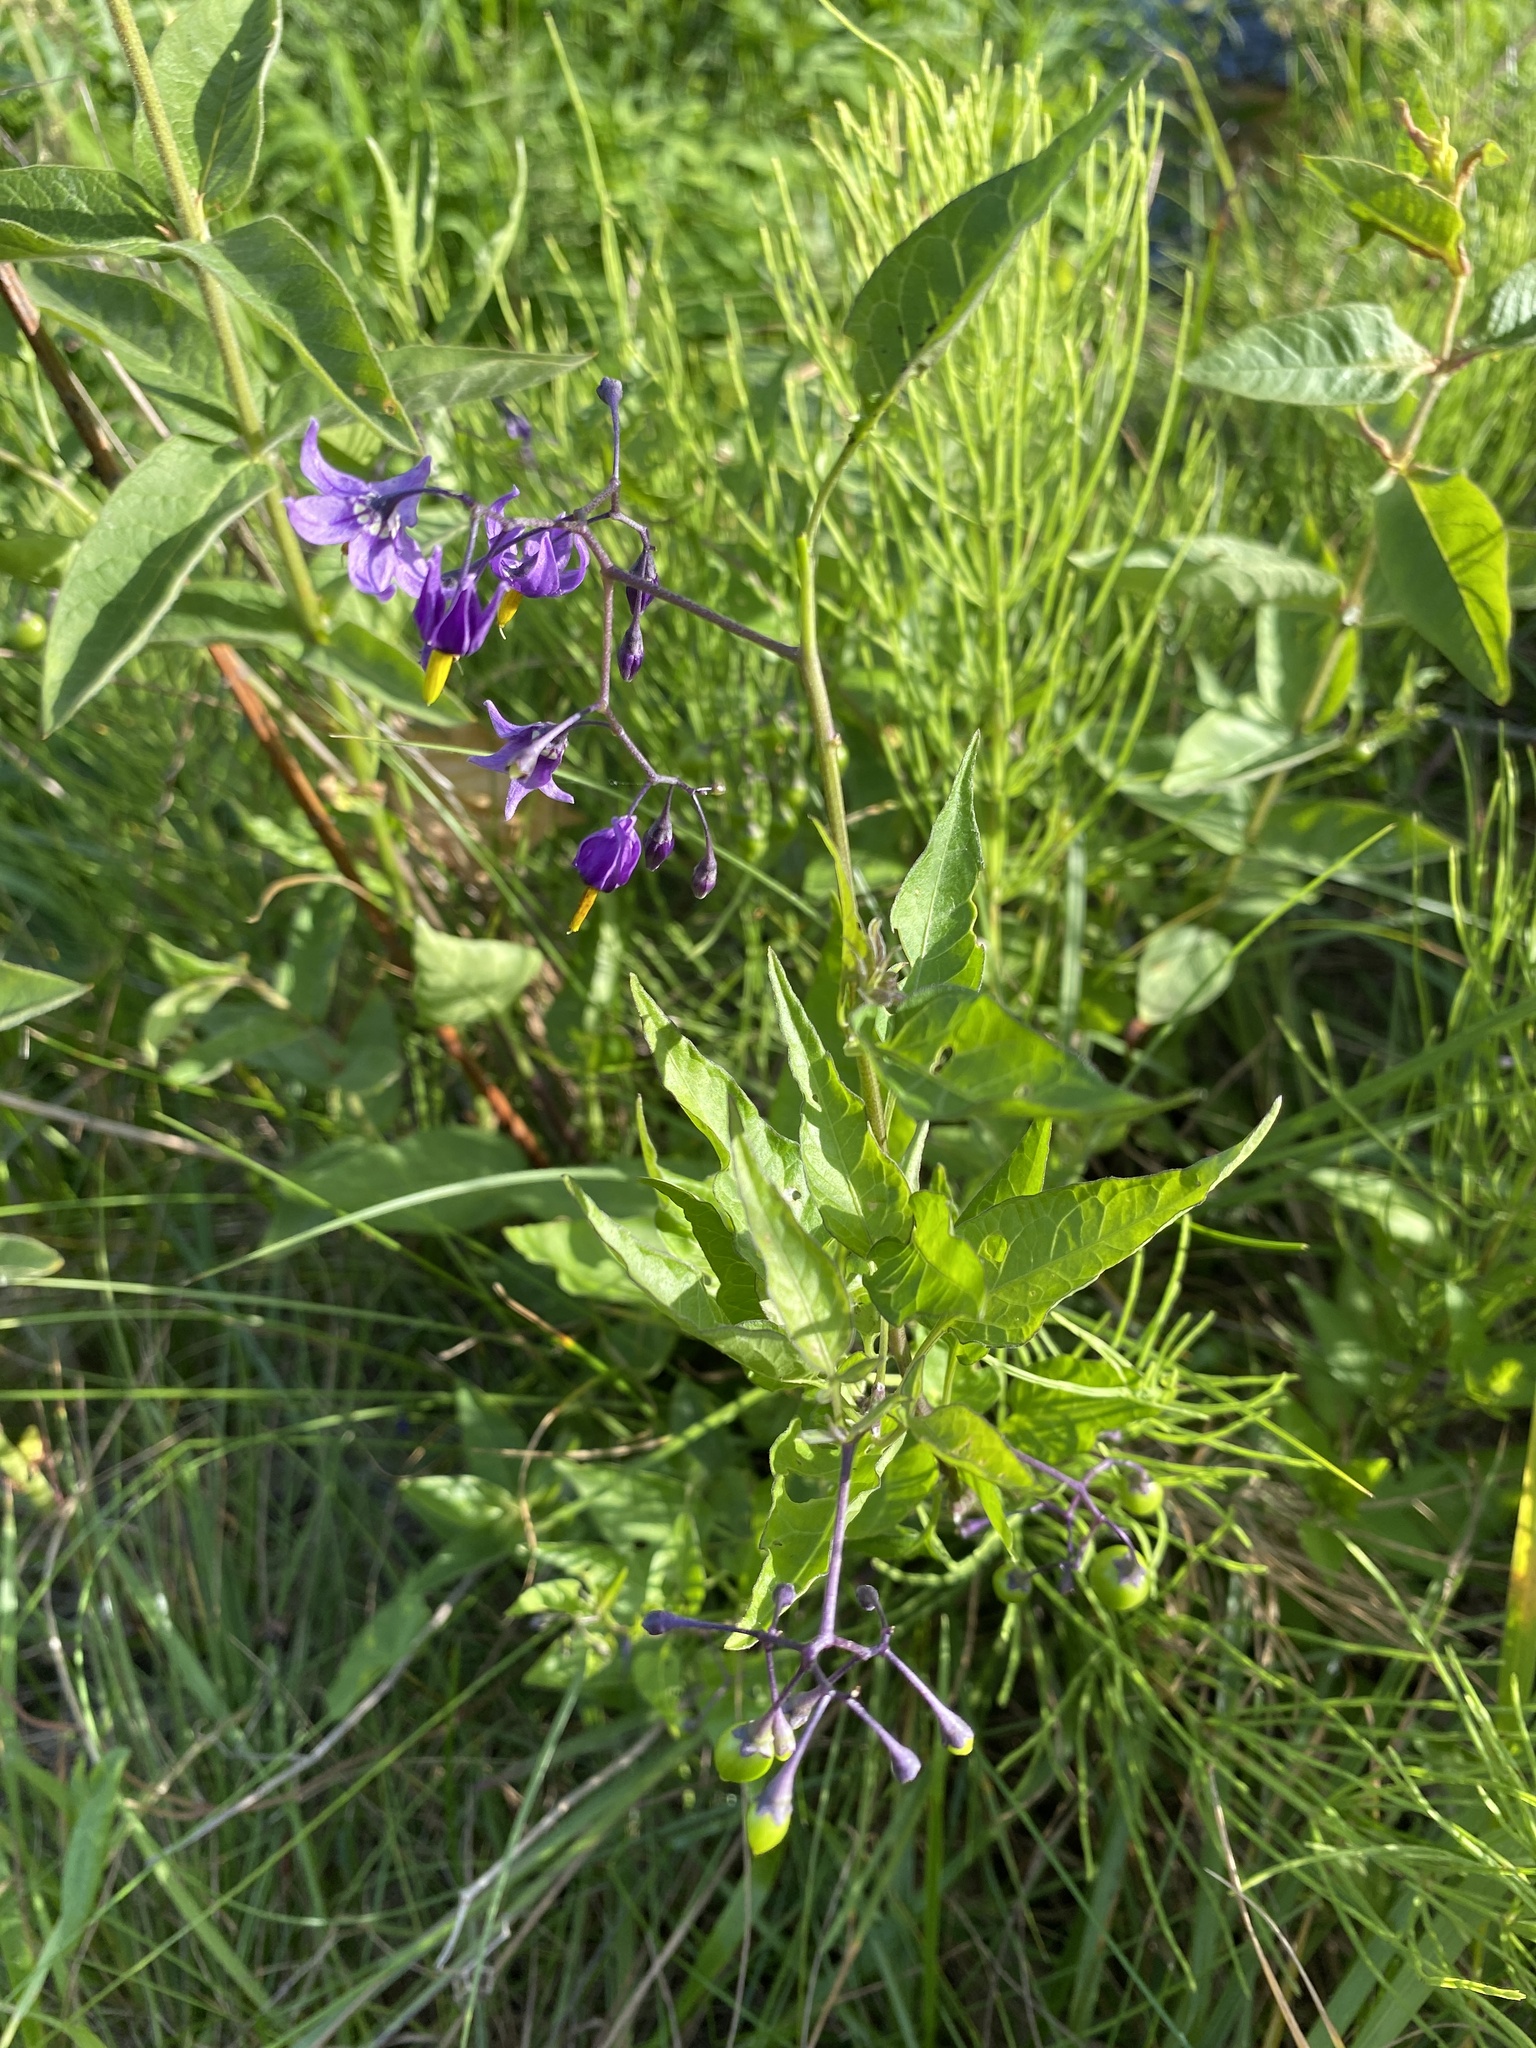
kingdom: Plantae
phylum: Tracheophyta
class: Magnoliopsida
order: Solanales
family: Solanaceae
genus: Solanum
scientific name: Solanum dulcamara
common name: Climbing nightshade
